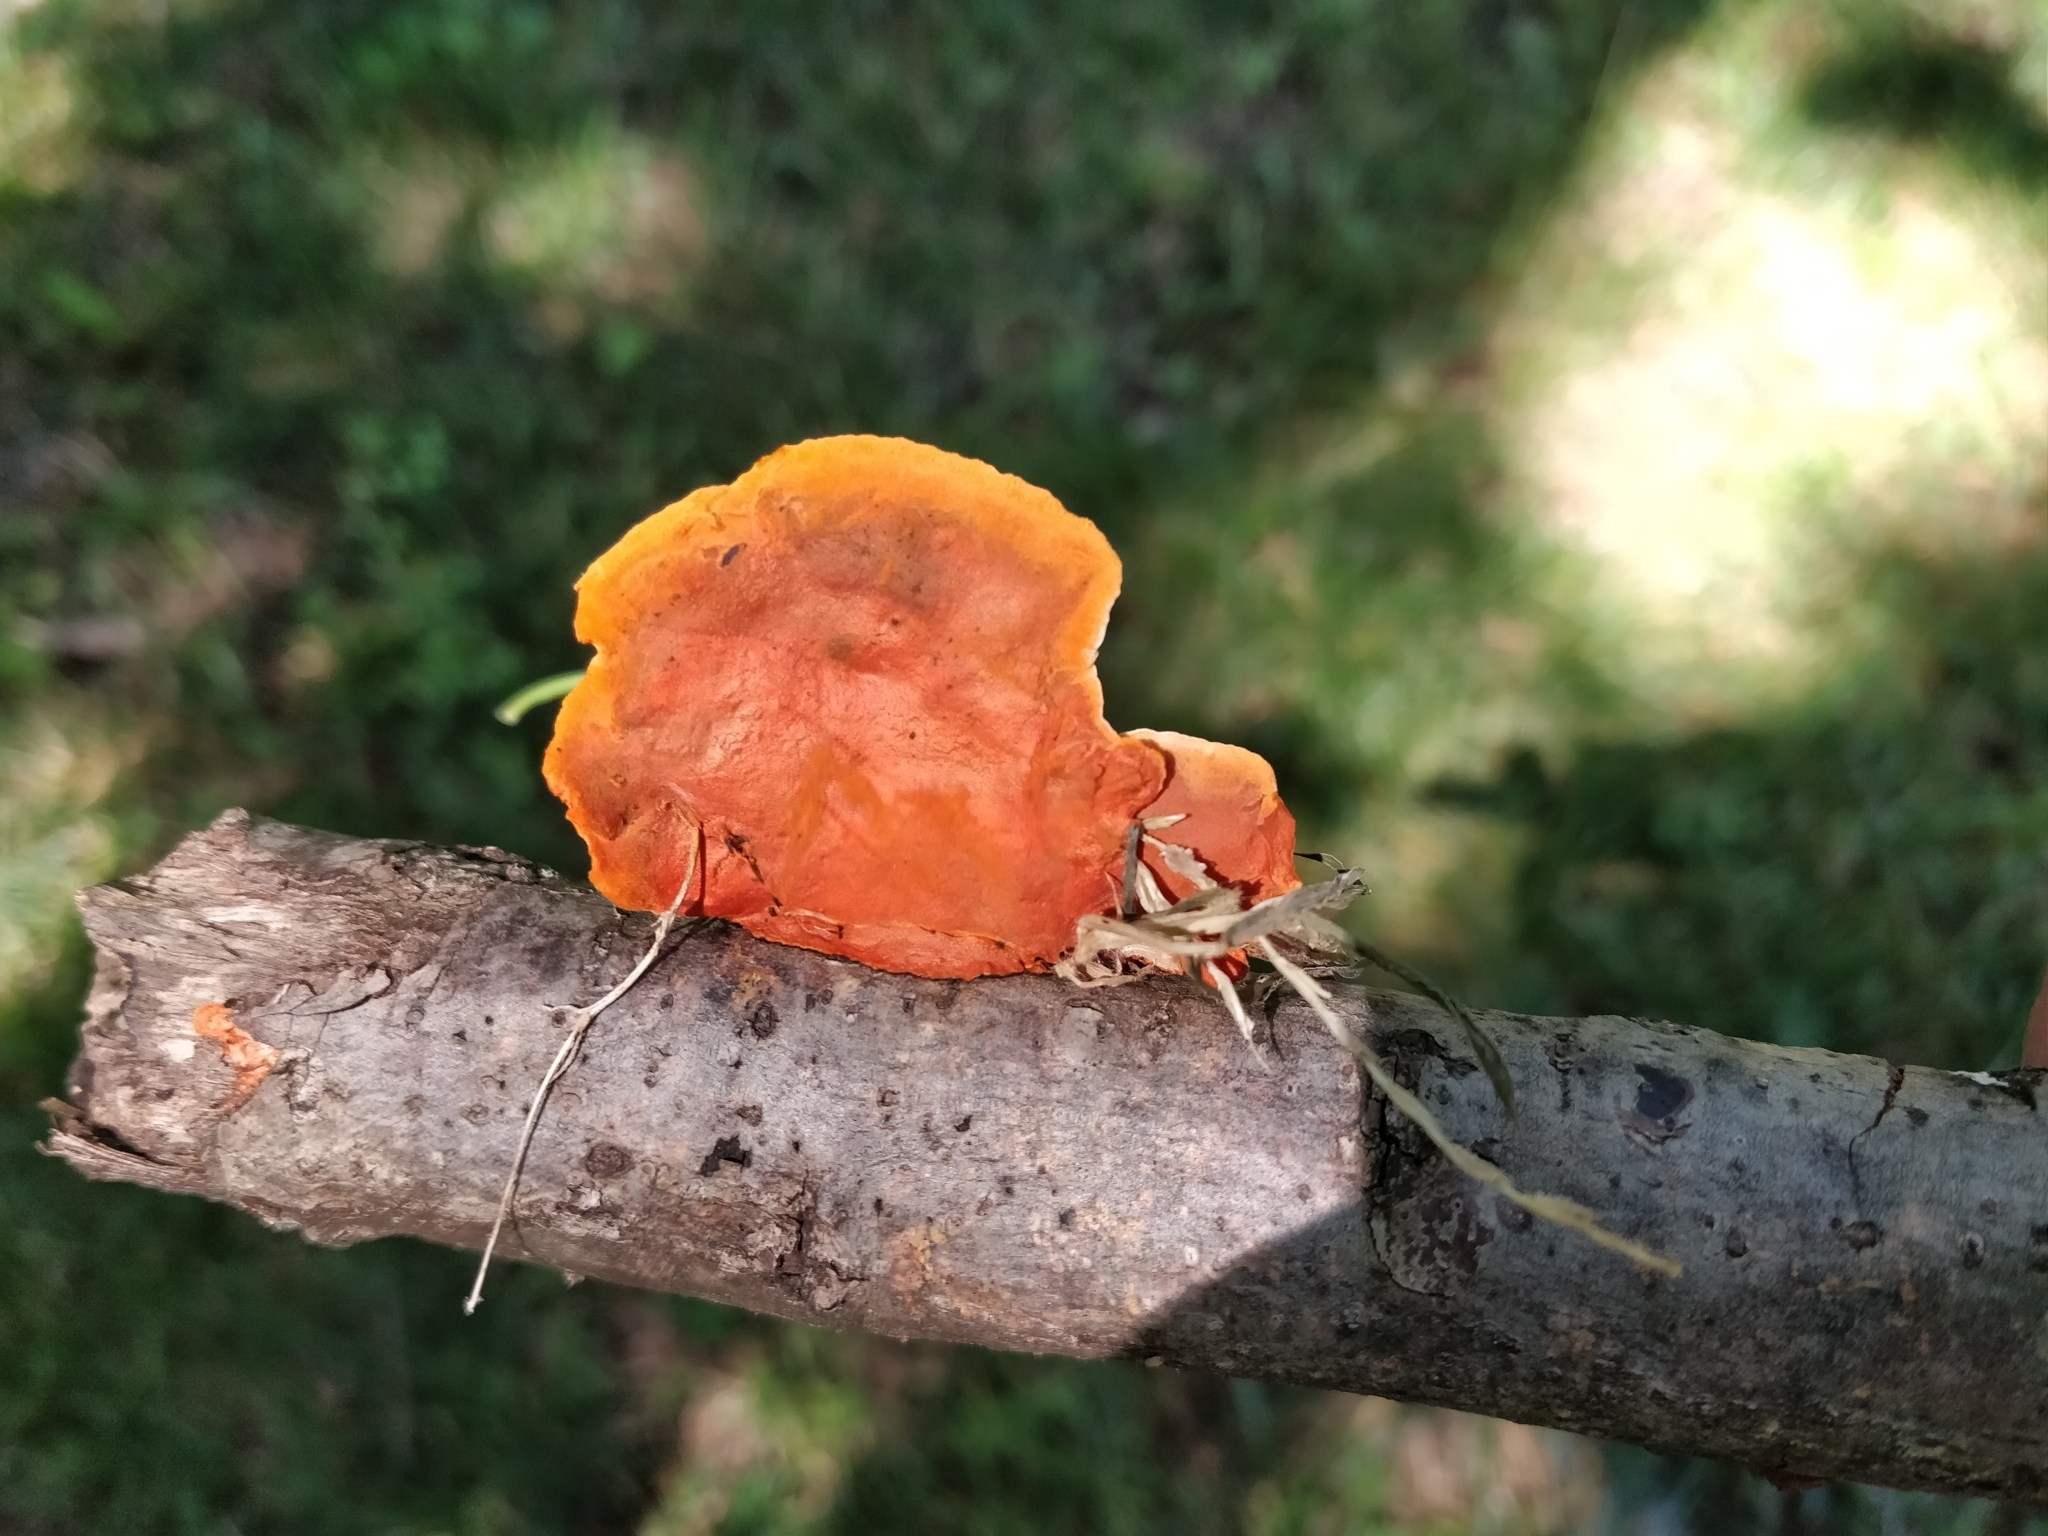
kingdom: Fungi
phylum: Basidiomycota
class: Agaricomycetes
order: Polyporales
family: Polyporaceae
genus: Trametes
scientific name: Trametes cinnabarina
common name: Northern cinnabar polypore
